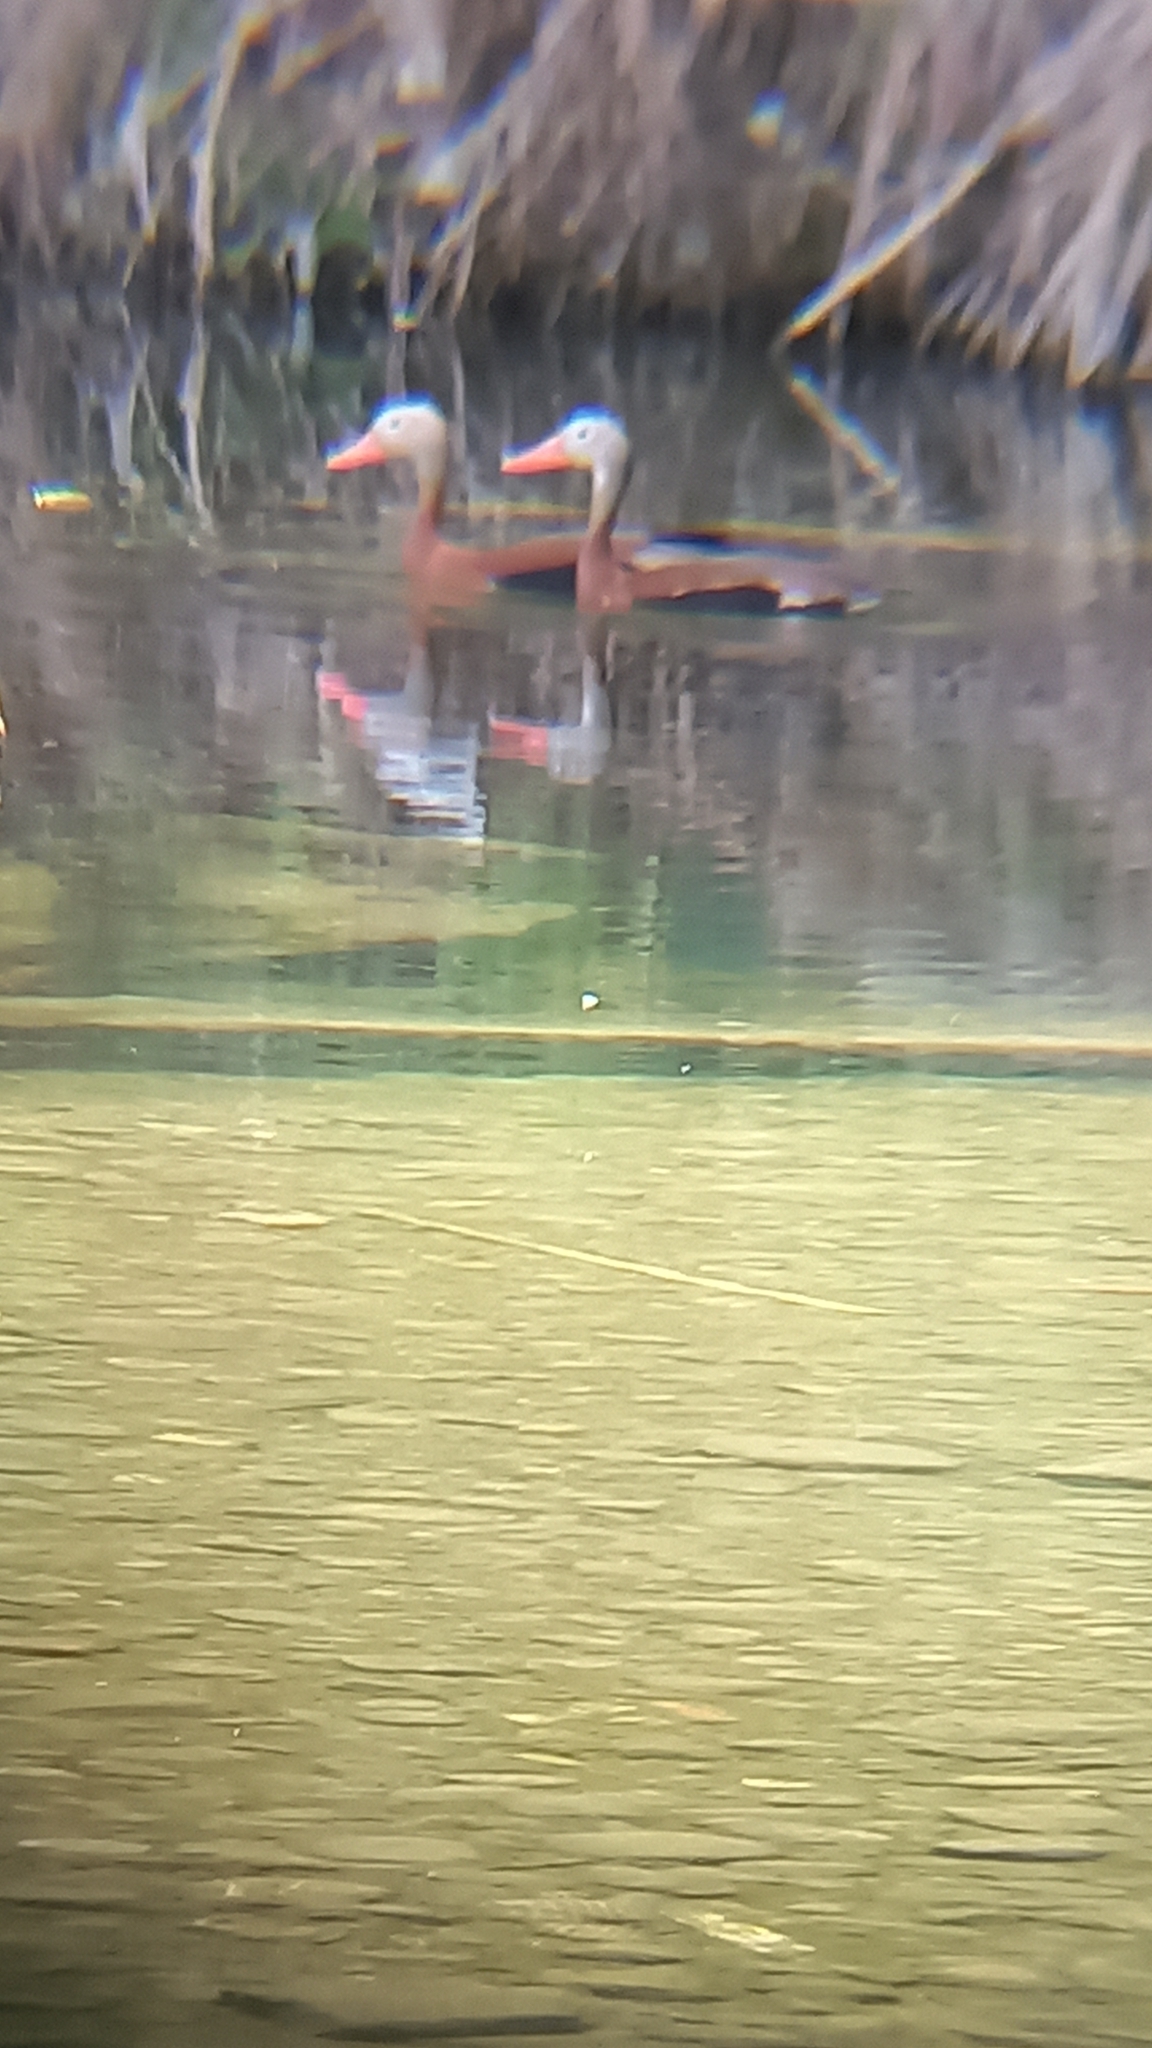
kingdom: Animalia
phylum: Chordata
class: Aves
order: Anseriformes
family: Anatidae
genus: Dendrocygna
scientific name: Dendrocygna autumnalis
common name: Black-bellied whistling duck
